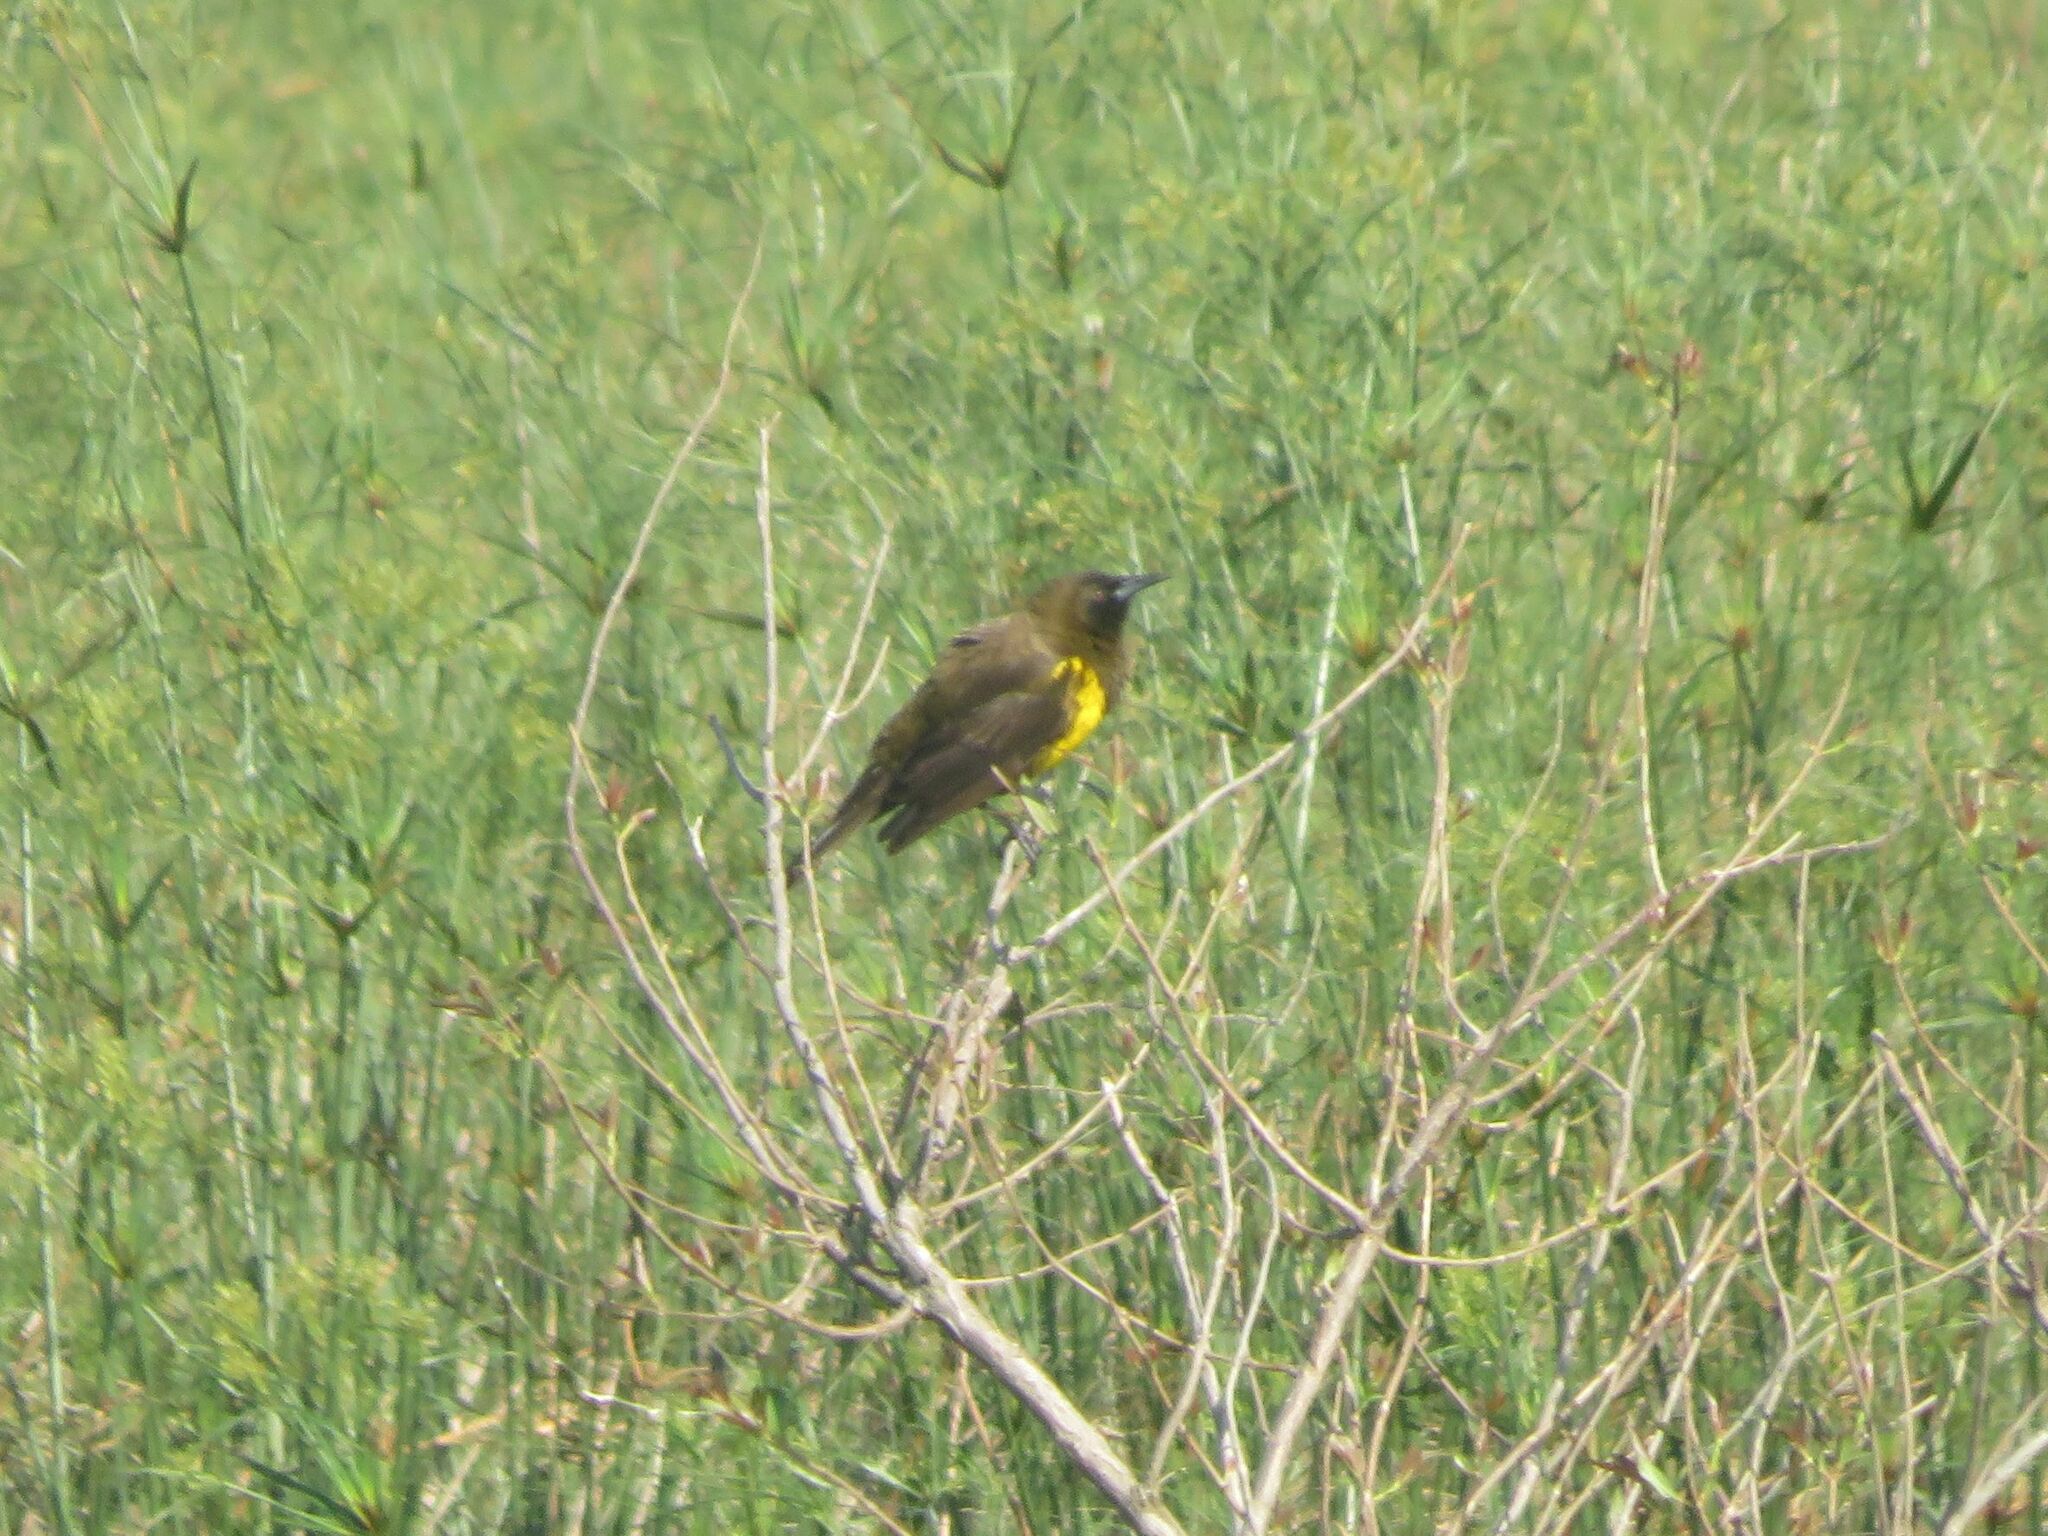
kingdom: Animalia
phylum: Chordata
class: Aves
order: Passeriformes
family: Icteridae
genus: Pseudoleistes
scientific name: Pseudoleistes virescens
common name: Brown-and-yellow marshbird
